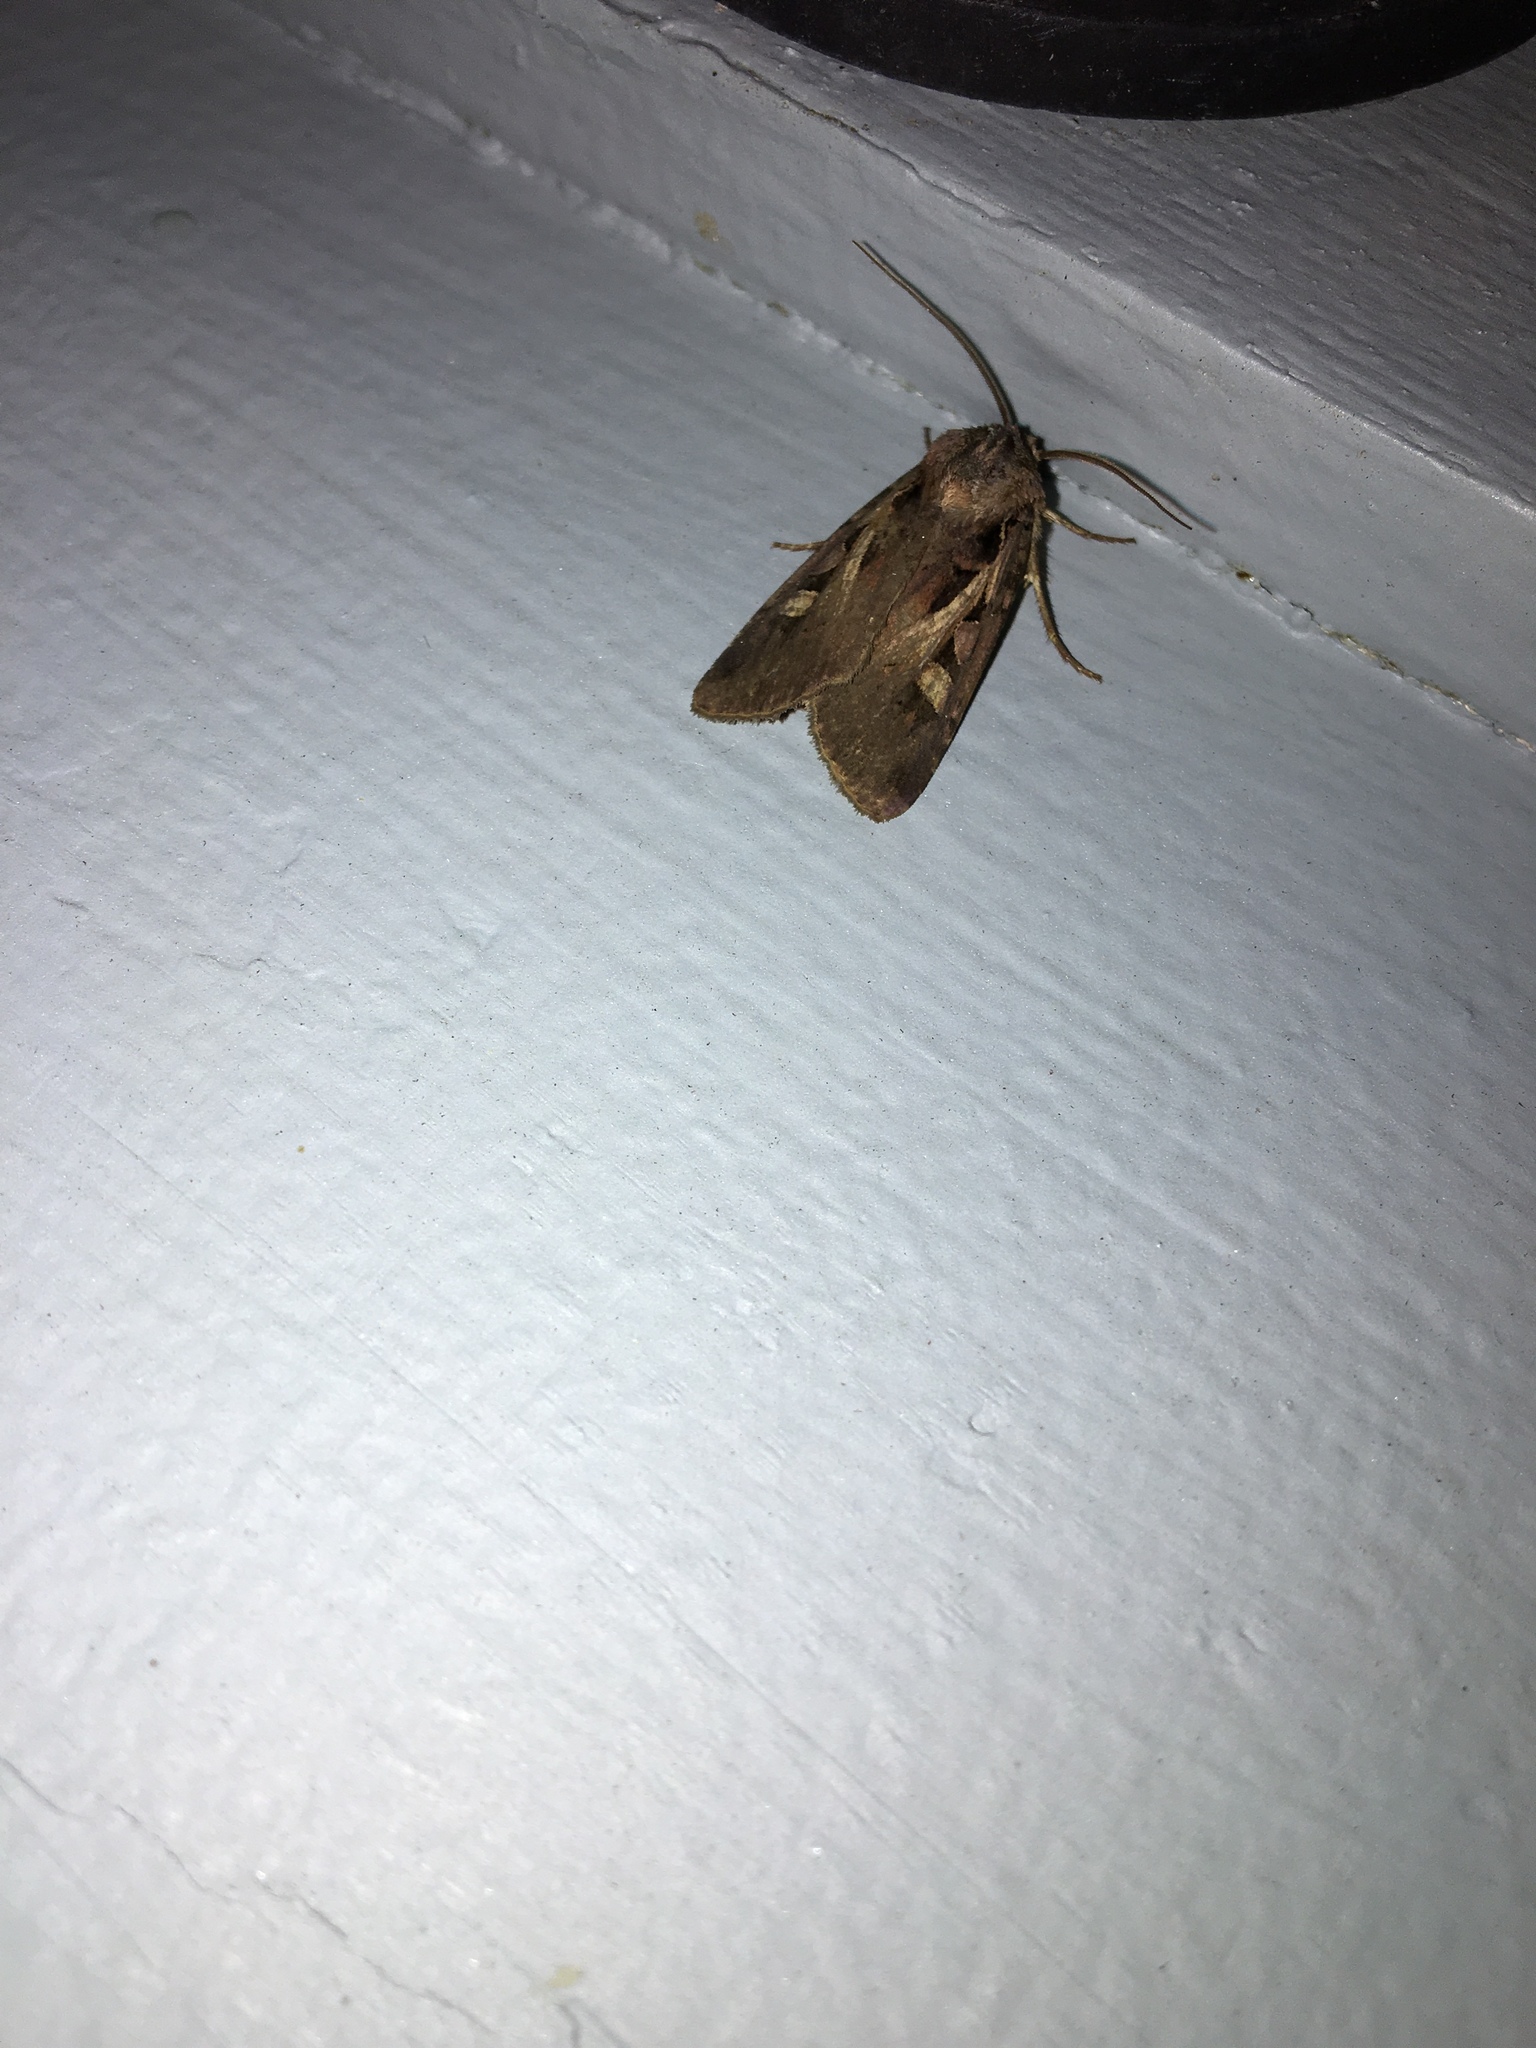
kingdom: Animalia
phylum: Arthropoda
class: Insecta
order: Lepidoptera
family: Noctuidae
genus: Feltia
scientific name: Feltia herilis
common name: Master's dart
